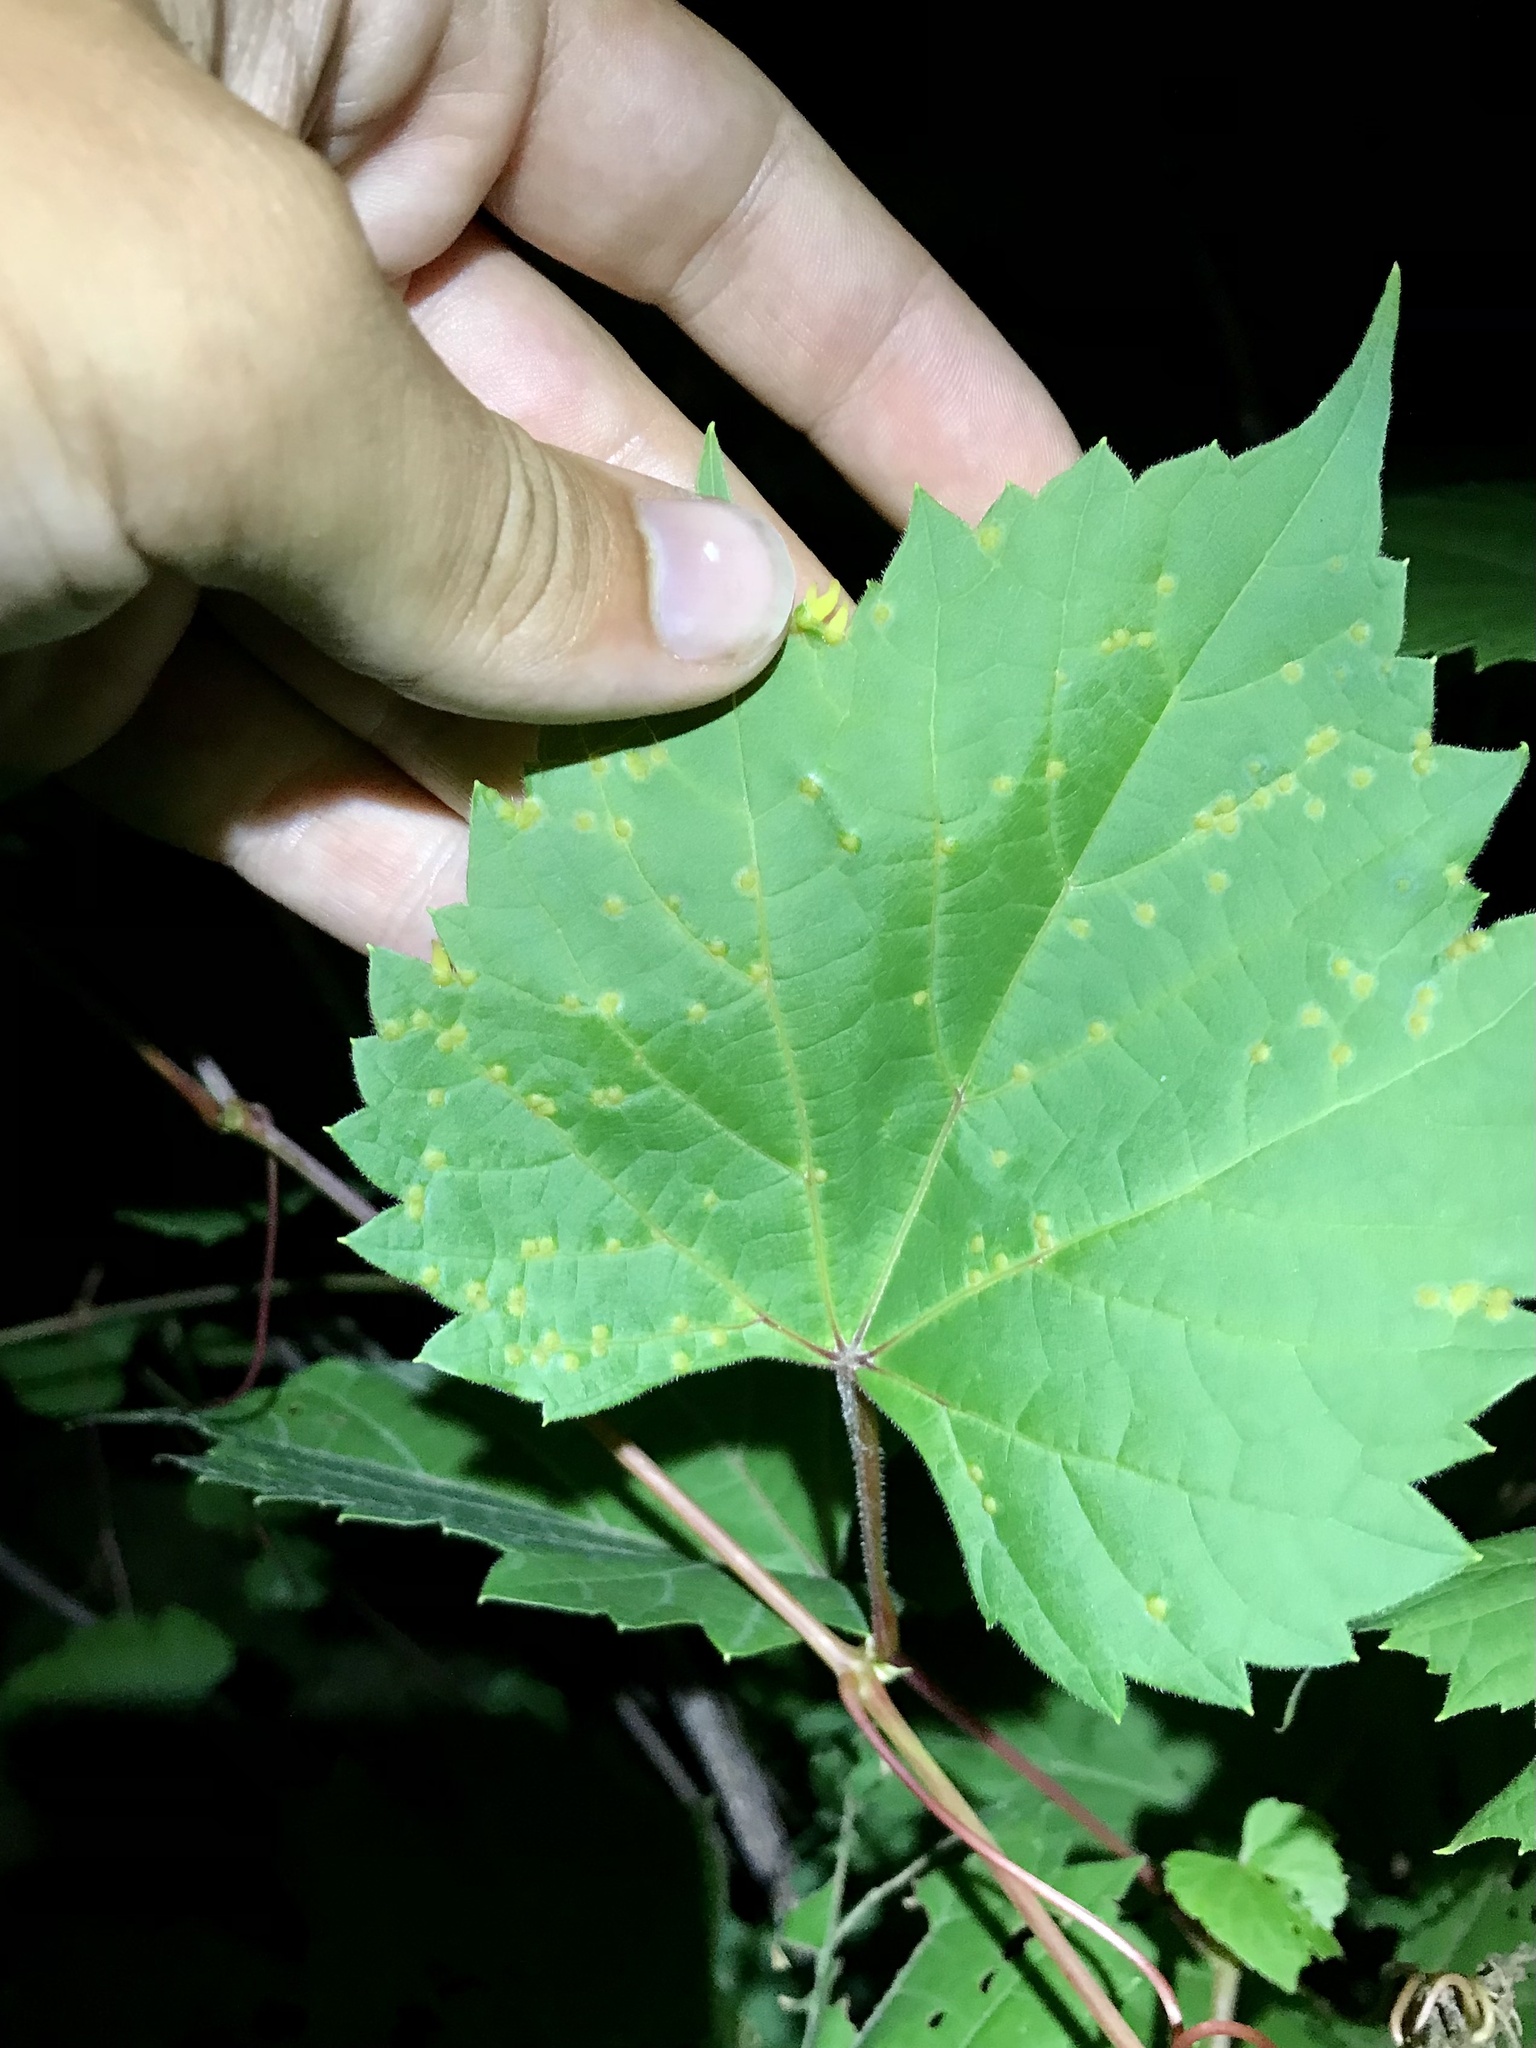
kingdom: Animalia
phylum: Arthropoda
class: Insecta
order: Diptera
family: Cecidomyiidae
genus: Ampelomyia
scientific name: Ampelomyia viticola
